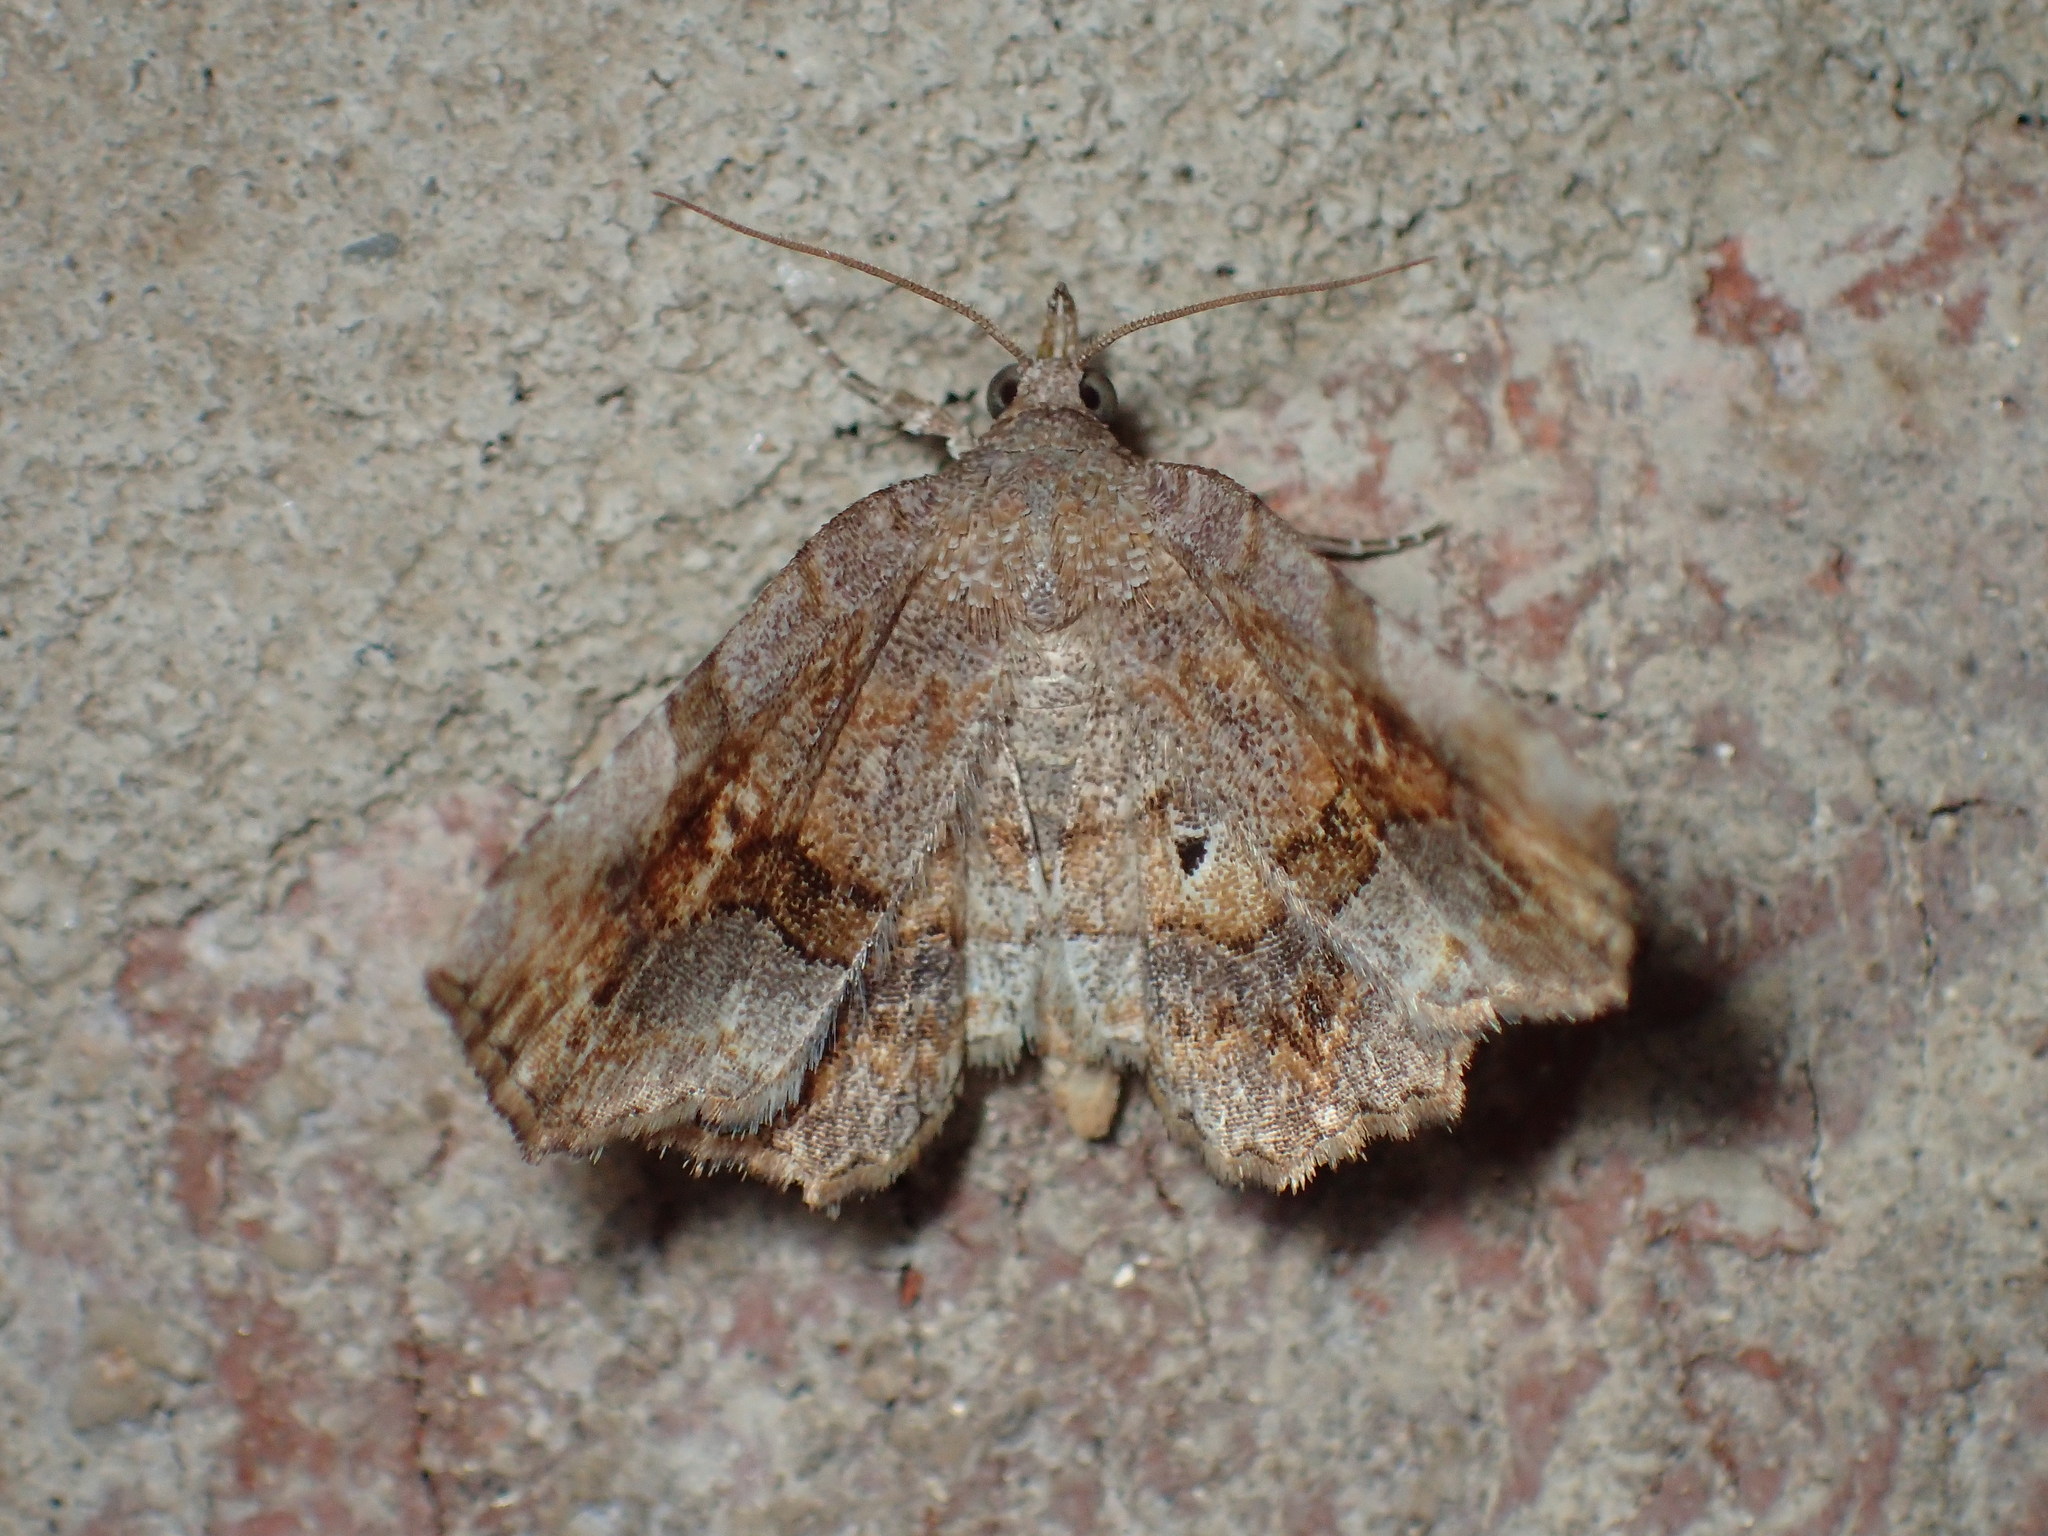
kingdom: Animalia
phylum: Arthropoda
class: Insecta
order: Lepidoptera
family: Erebidae
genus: Pangrapta
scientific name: Pangrapta decoralis
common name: Decorated owlet
